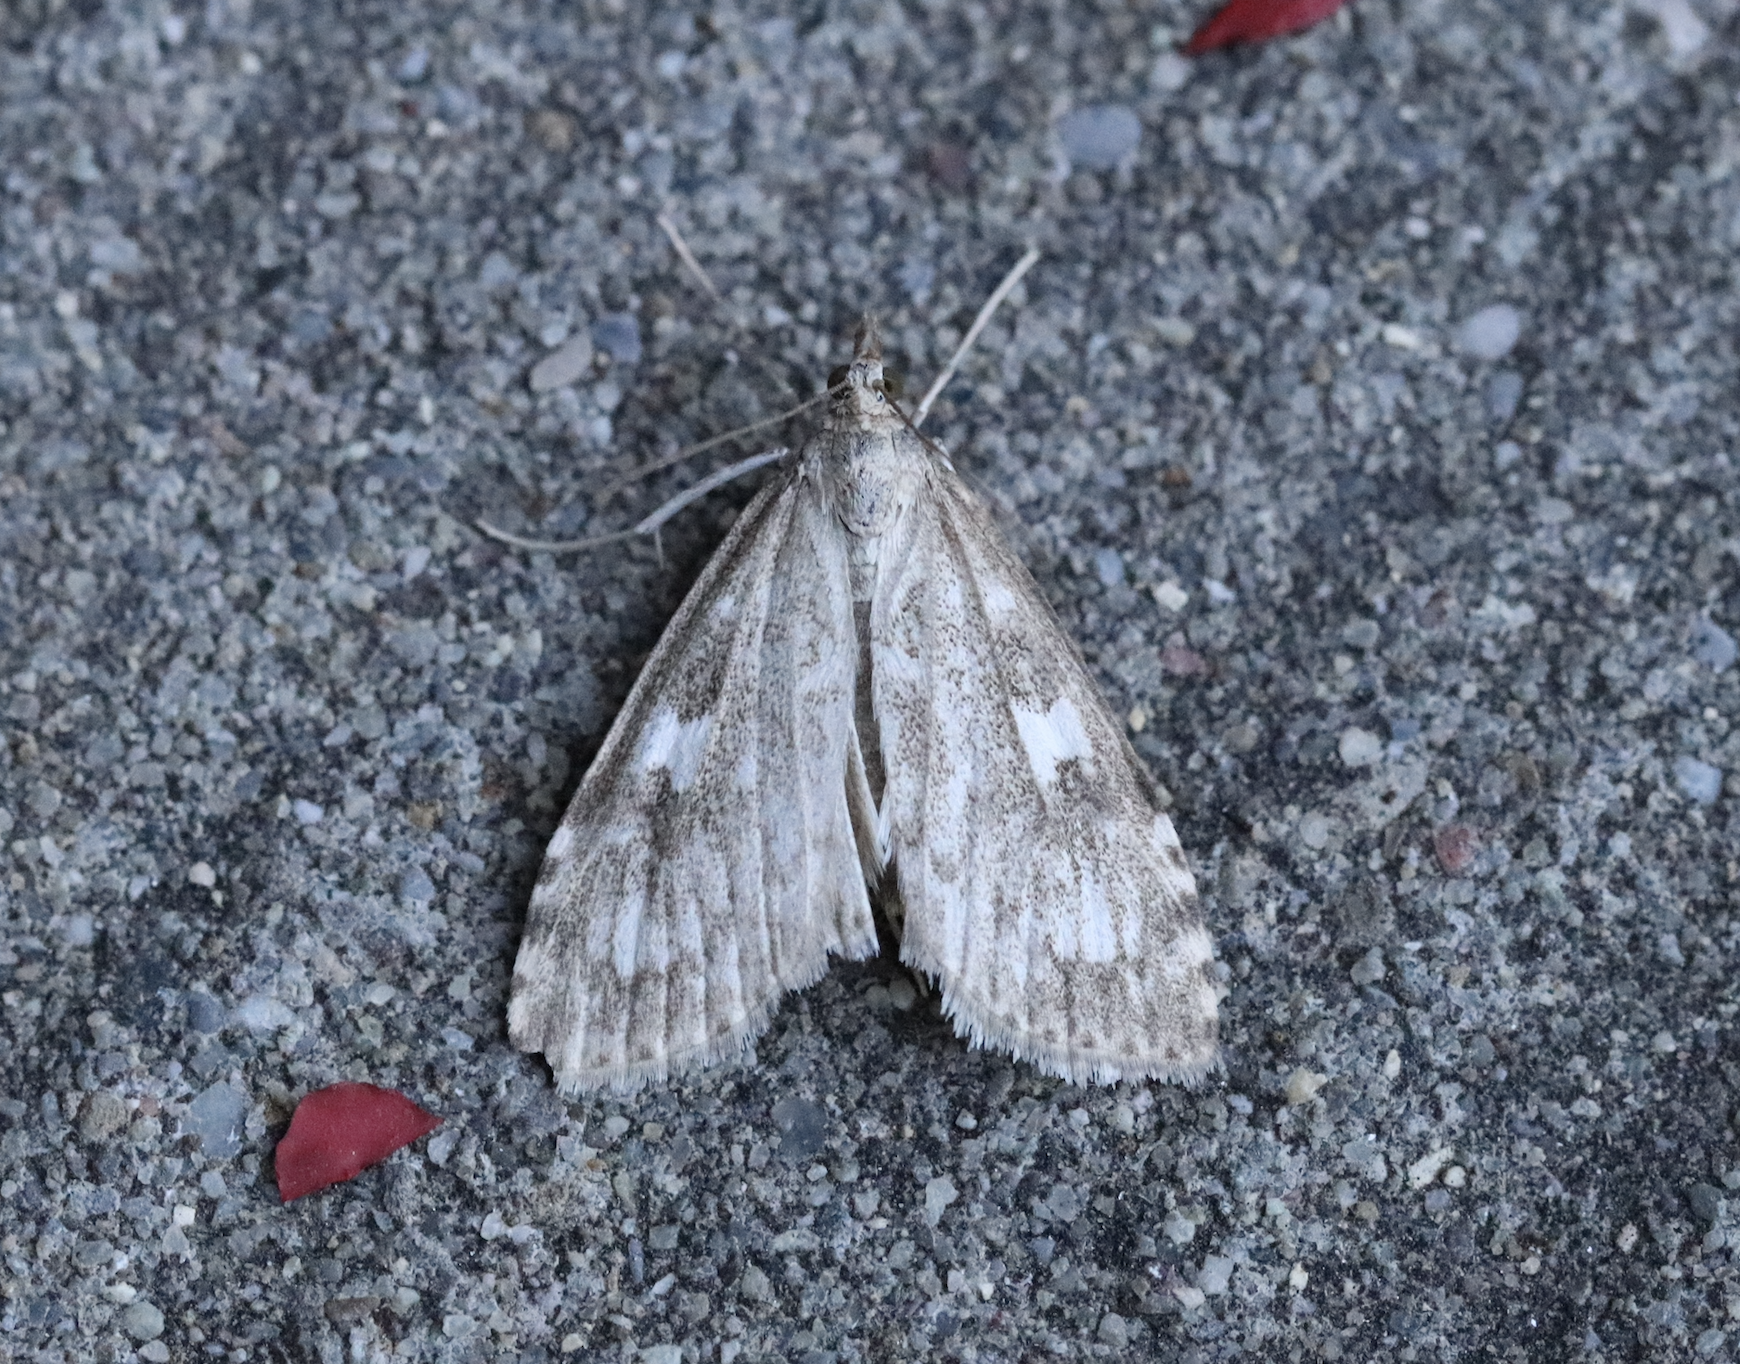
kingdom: Animalia
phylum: Arthropoda
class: Insecta
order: Lepidoptera
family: Crambidae
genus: Udea
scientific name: Udea olivalis
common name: Olive pearl
